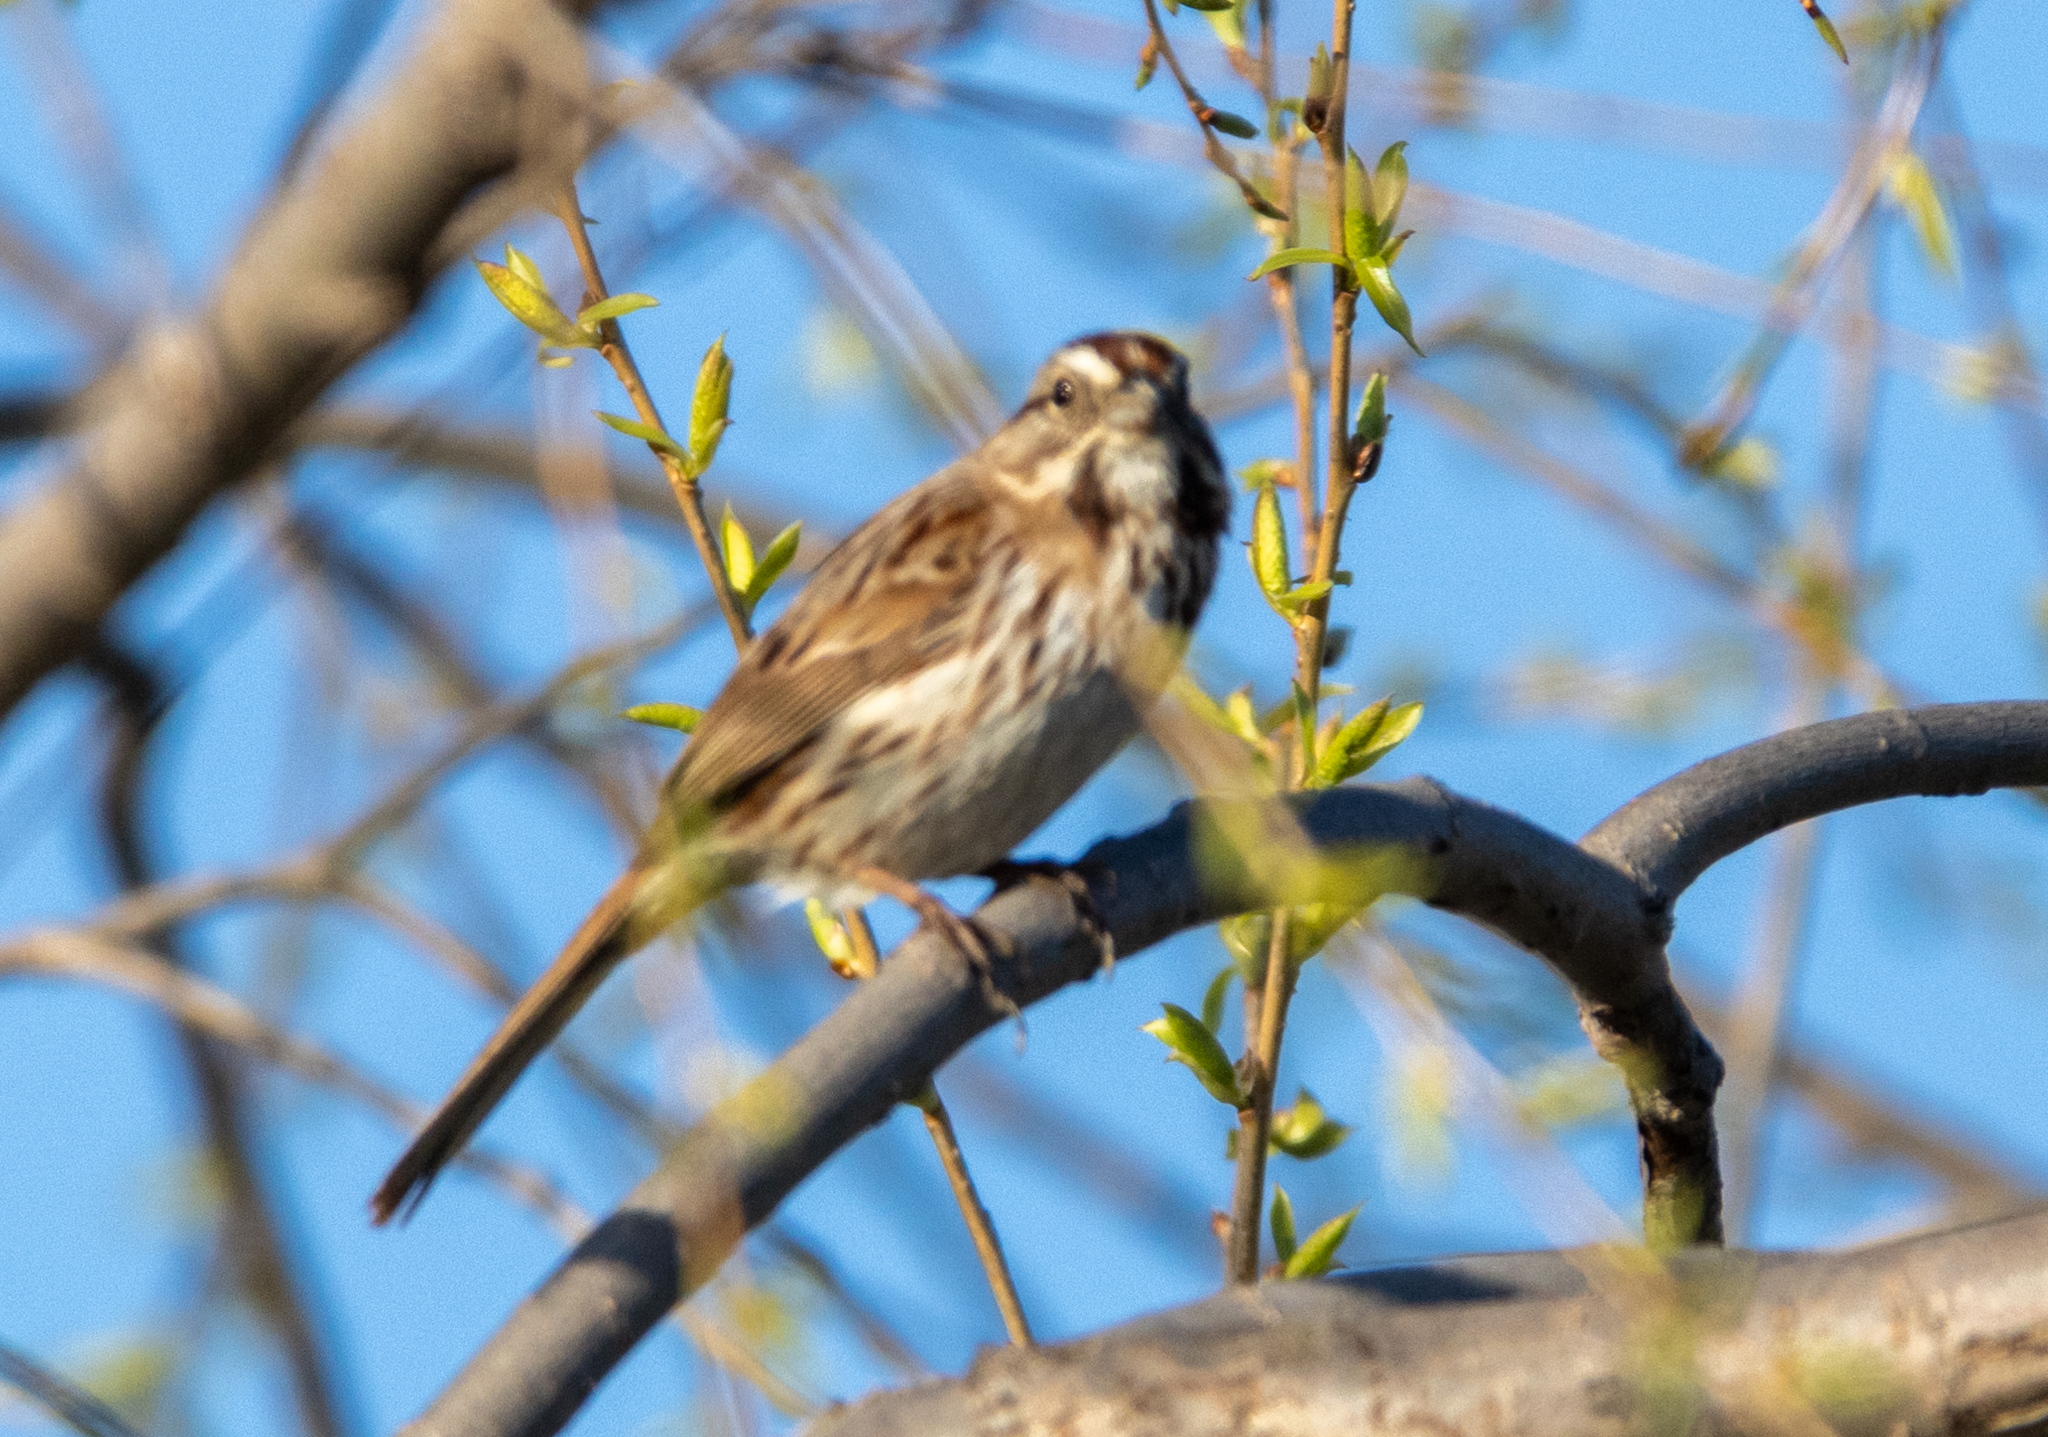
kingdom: Animalia
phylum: Chordata
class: Aves
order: Passeriformes
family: Passerellidae
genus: Melospiza
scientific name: Melospiza melodia
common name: Song sparrow
